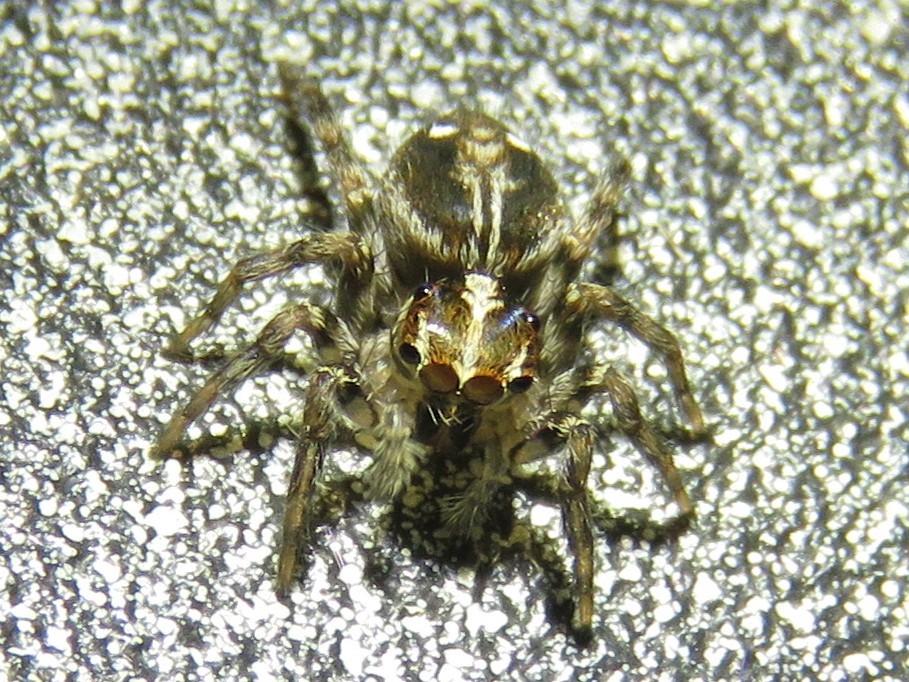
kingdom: Animalia
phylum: Arthropoda
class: Arachnida
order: Araneae
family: Salticidae
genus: Plexippus
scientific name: Plexippus paykulli
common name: Pantropical jumper
